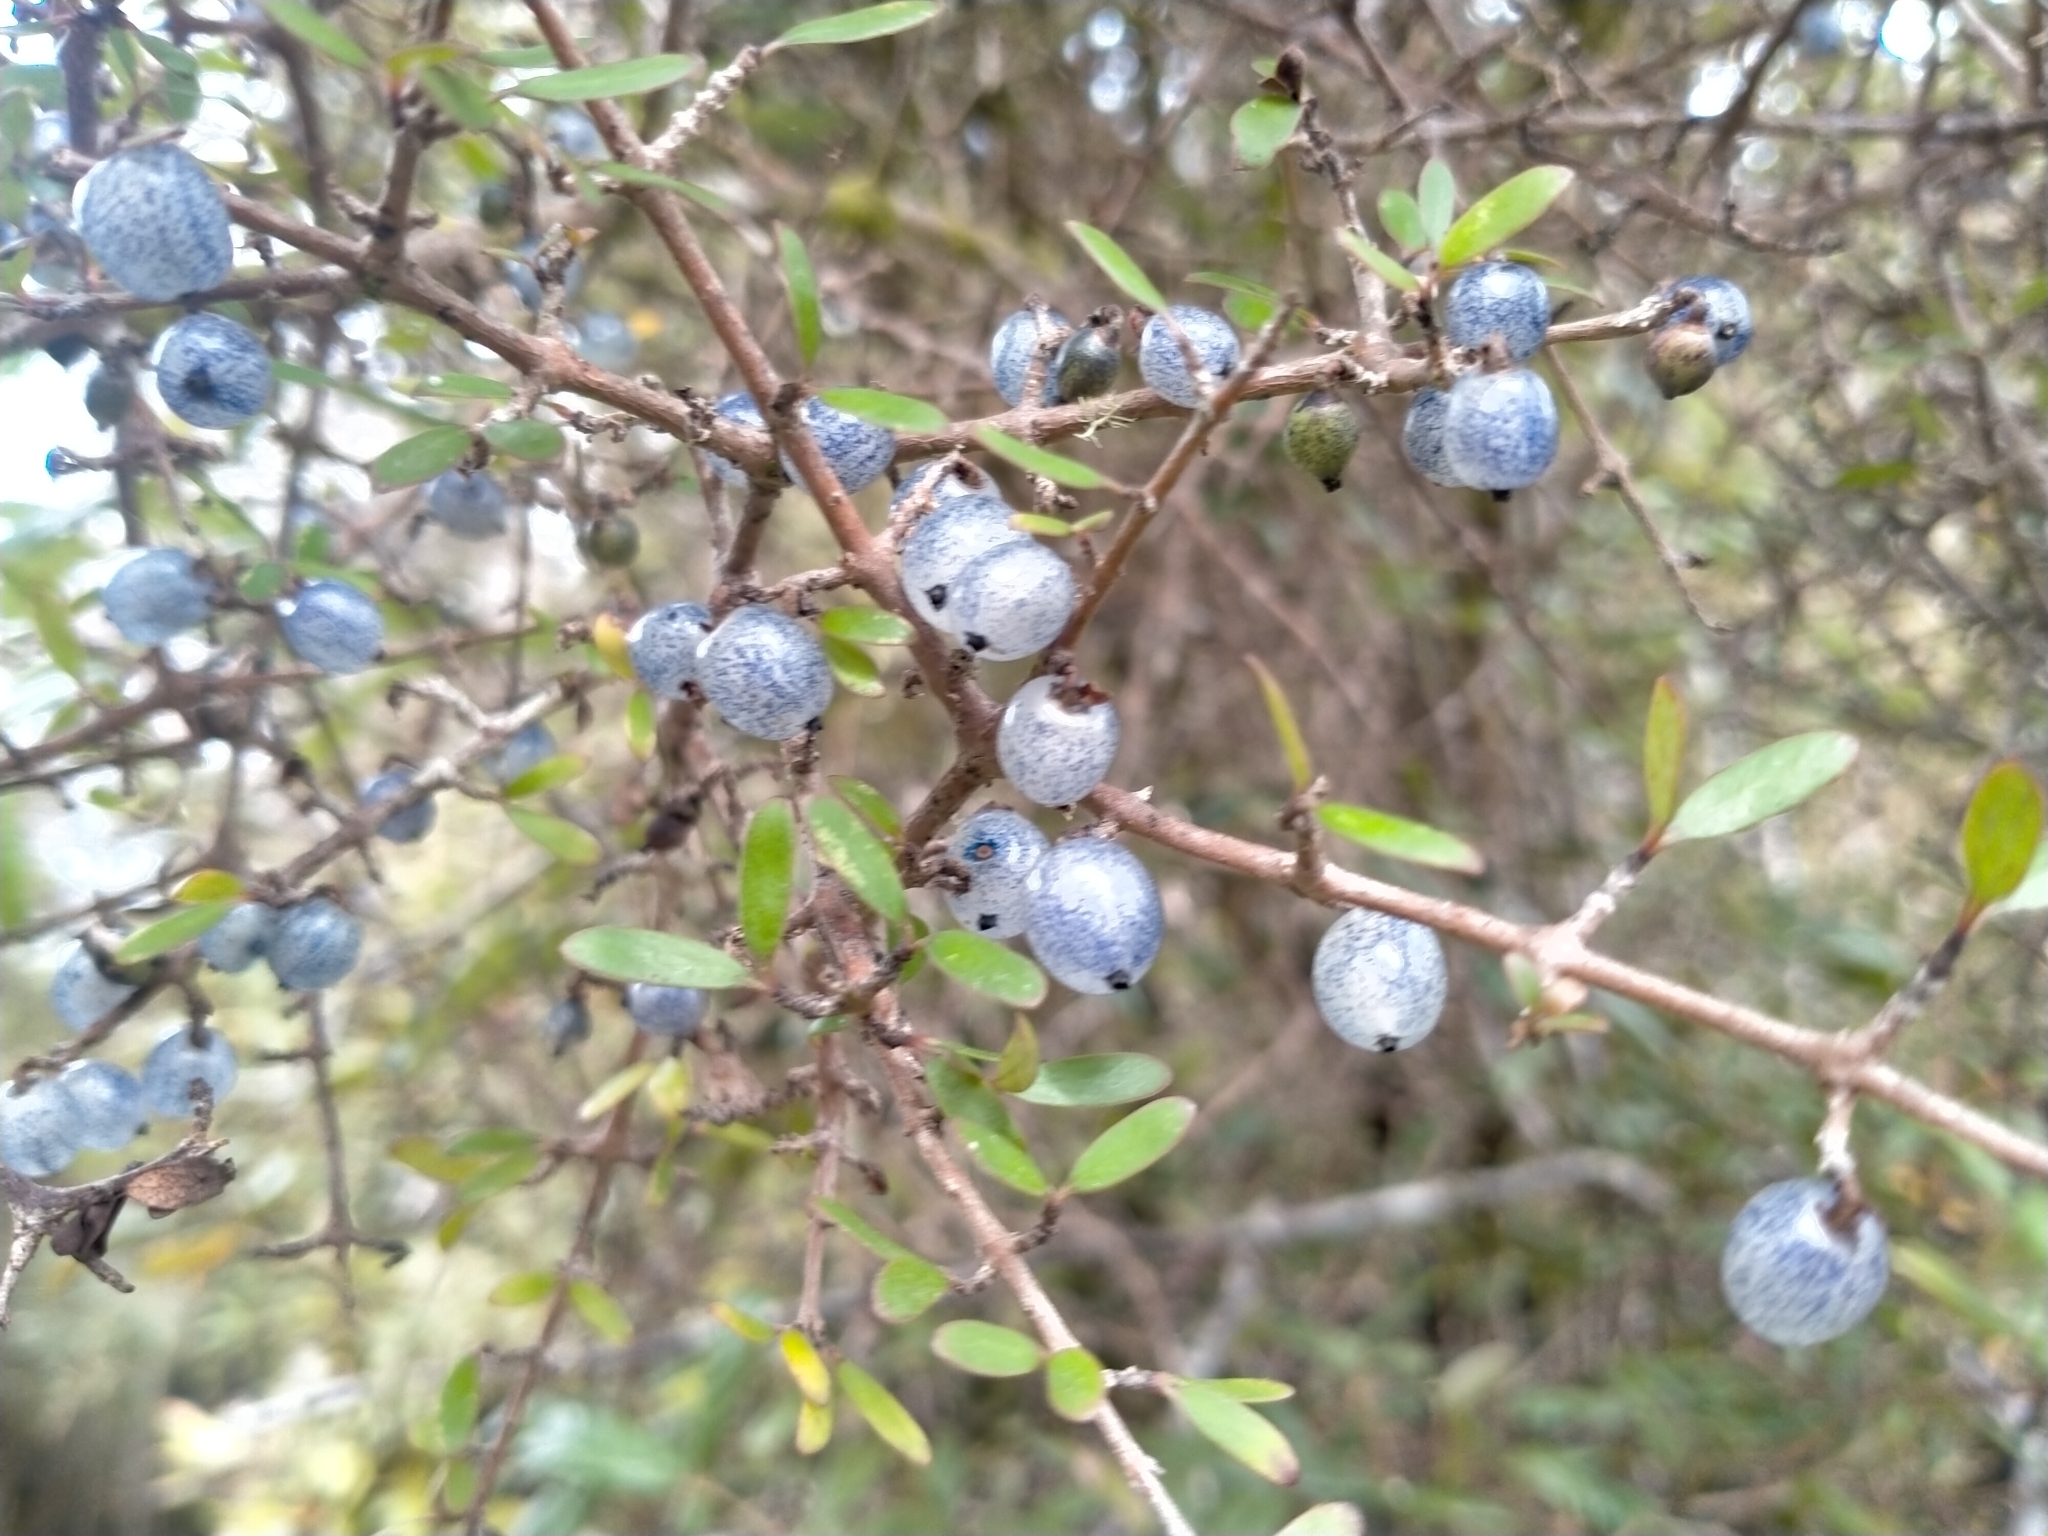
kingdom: Plantae
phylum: Tracheophyta
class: Magnoliopsida
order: Gentianales
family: Rubiaceae
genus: Coprosma
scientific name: Coprosma propinqua
